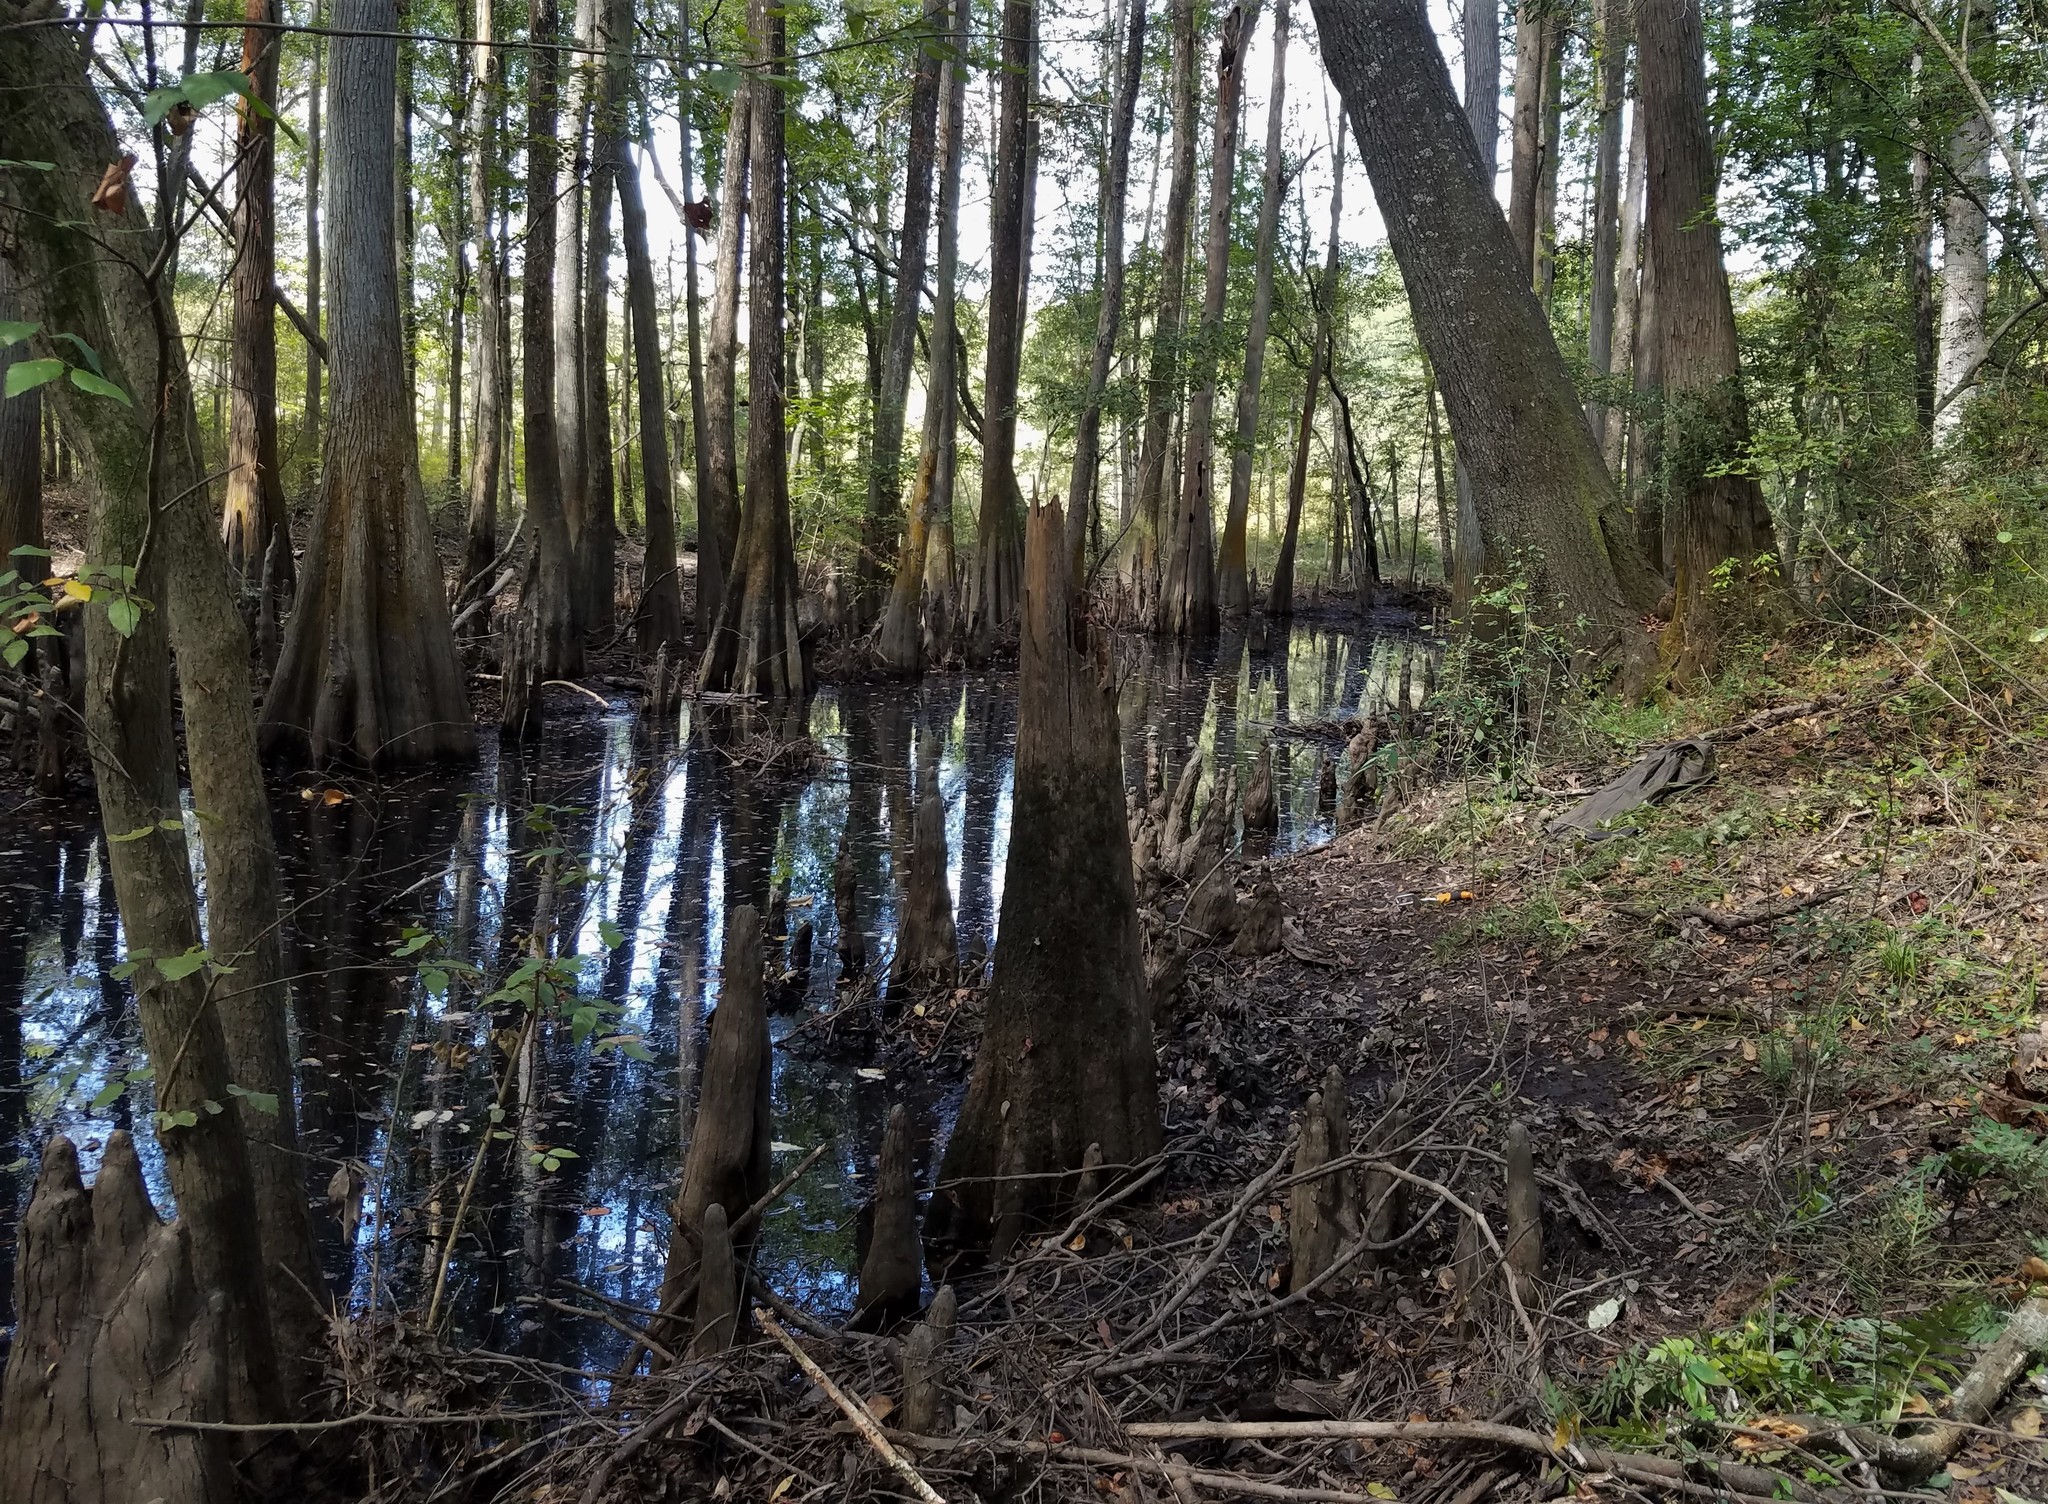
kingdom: Animalia
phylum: Arthropoda
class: Diplopoda
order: Polydesmida
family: Polydesmidae
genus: Pseudopolydesmus
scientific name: Pseudopolydesmus paludicolus
